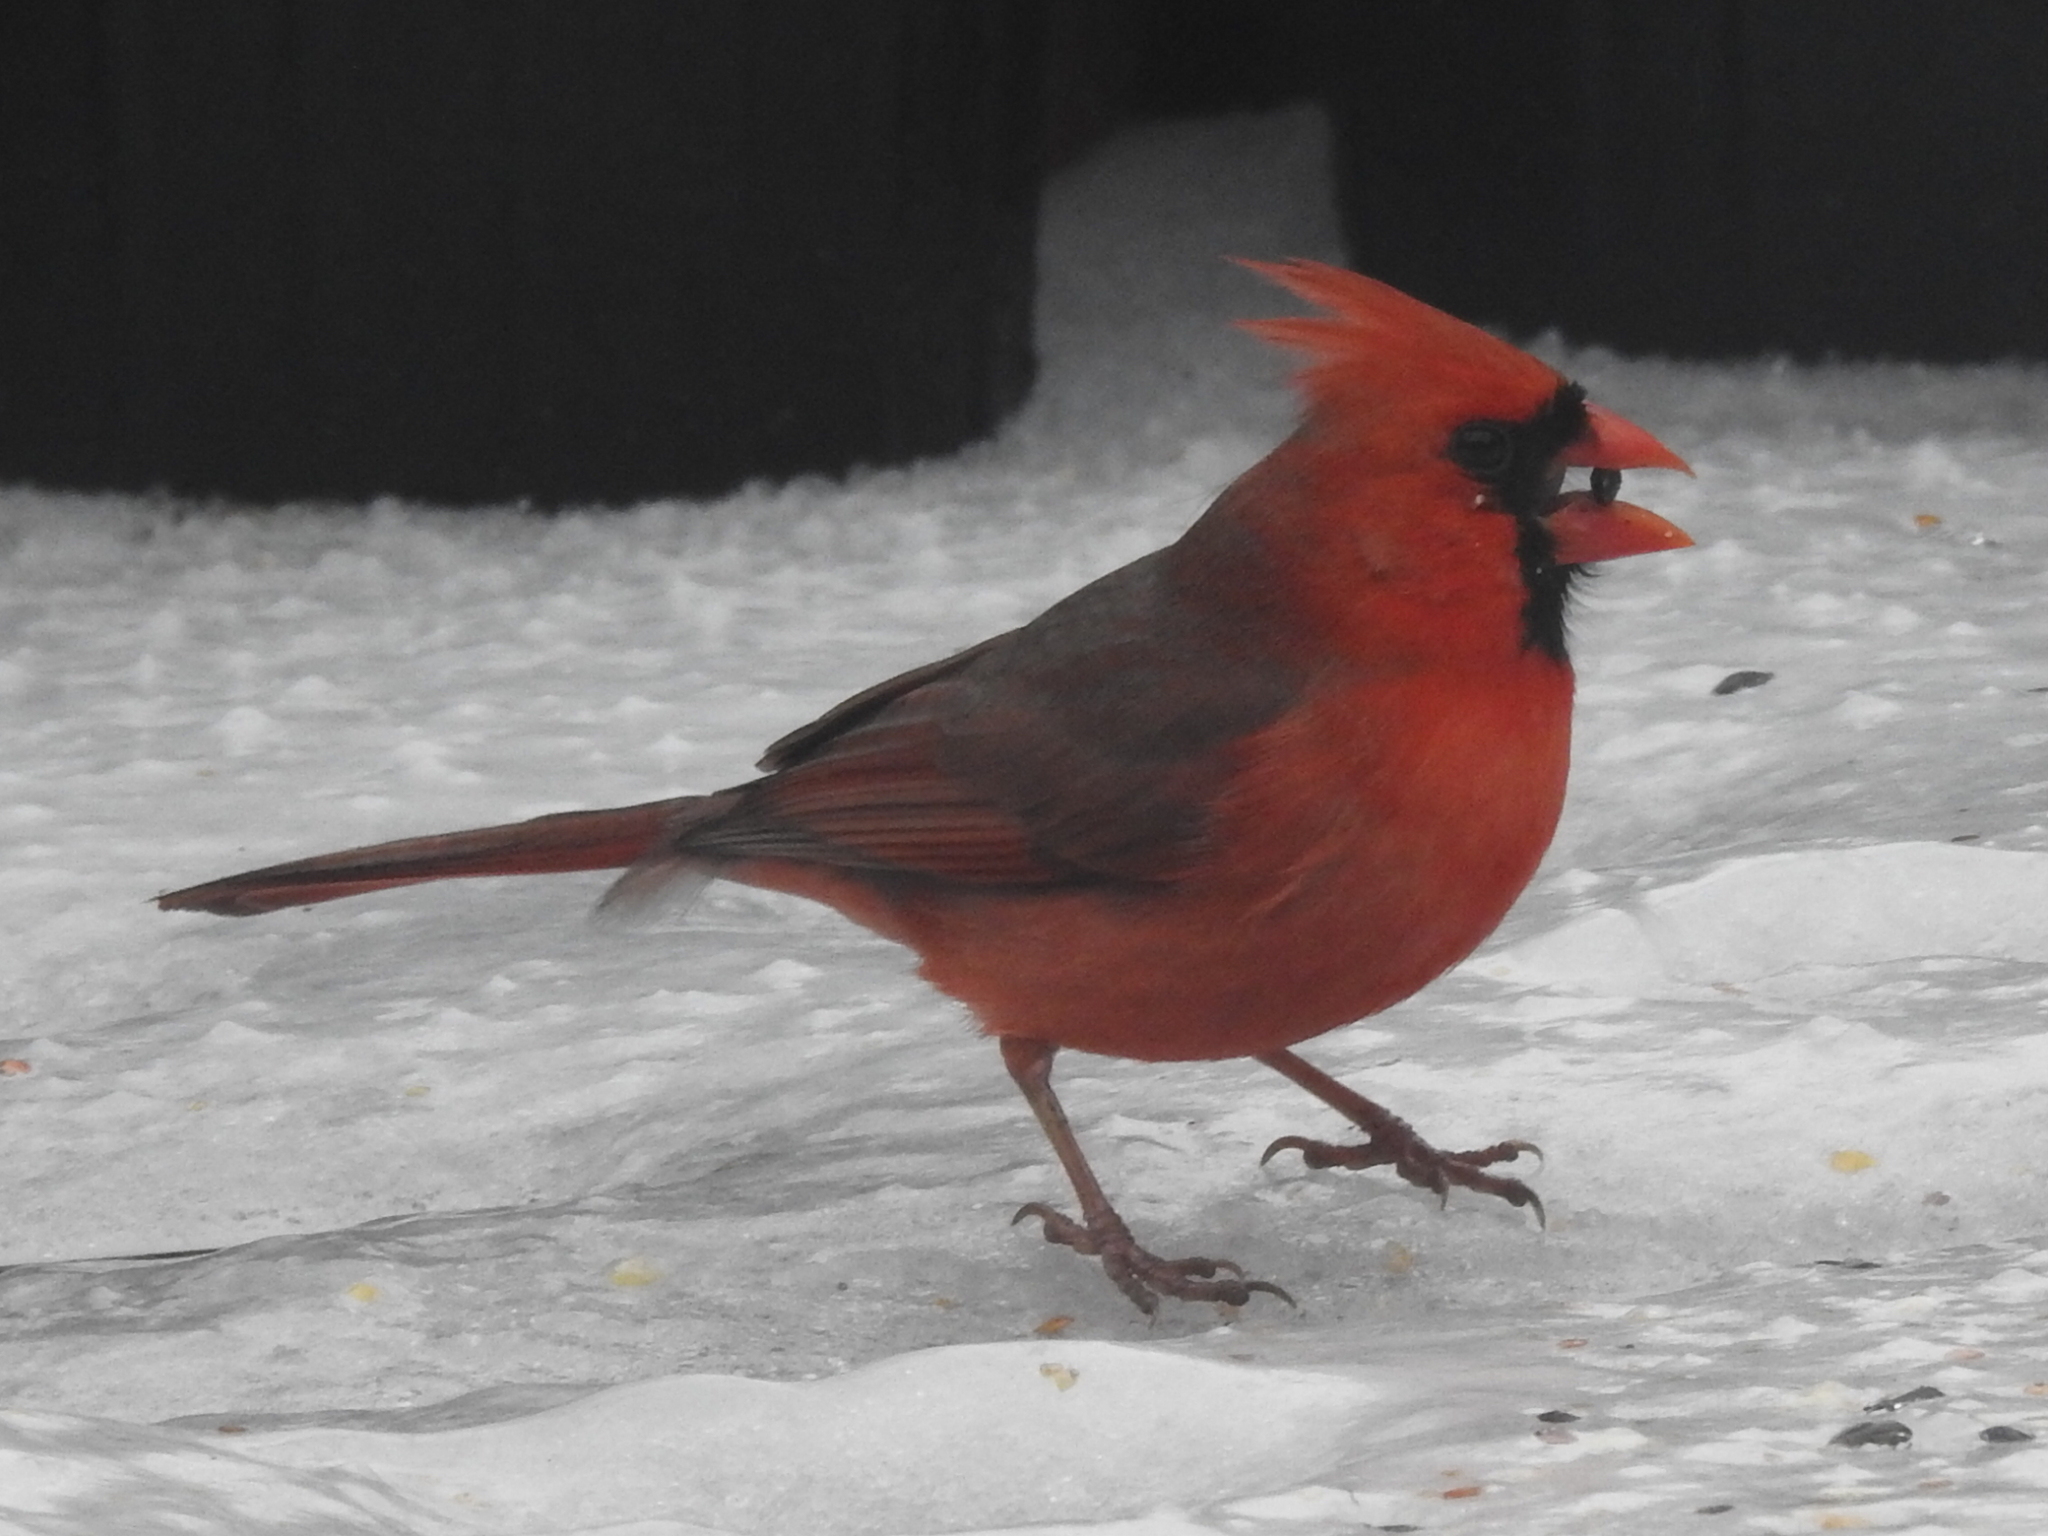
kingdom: Animalia
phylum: Chordata
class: Aves
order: Passeriformes
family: Cardinalidae
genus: Cardinalis
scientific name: Cardinalis cardinalis
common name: Northern cardinal
